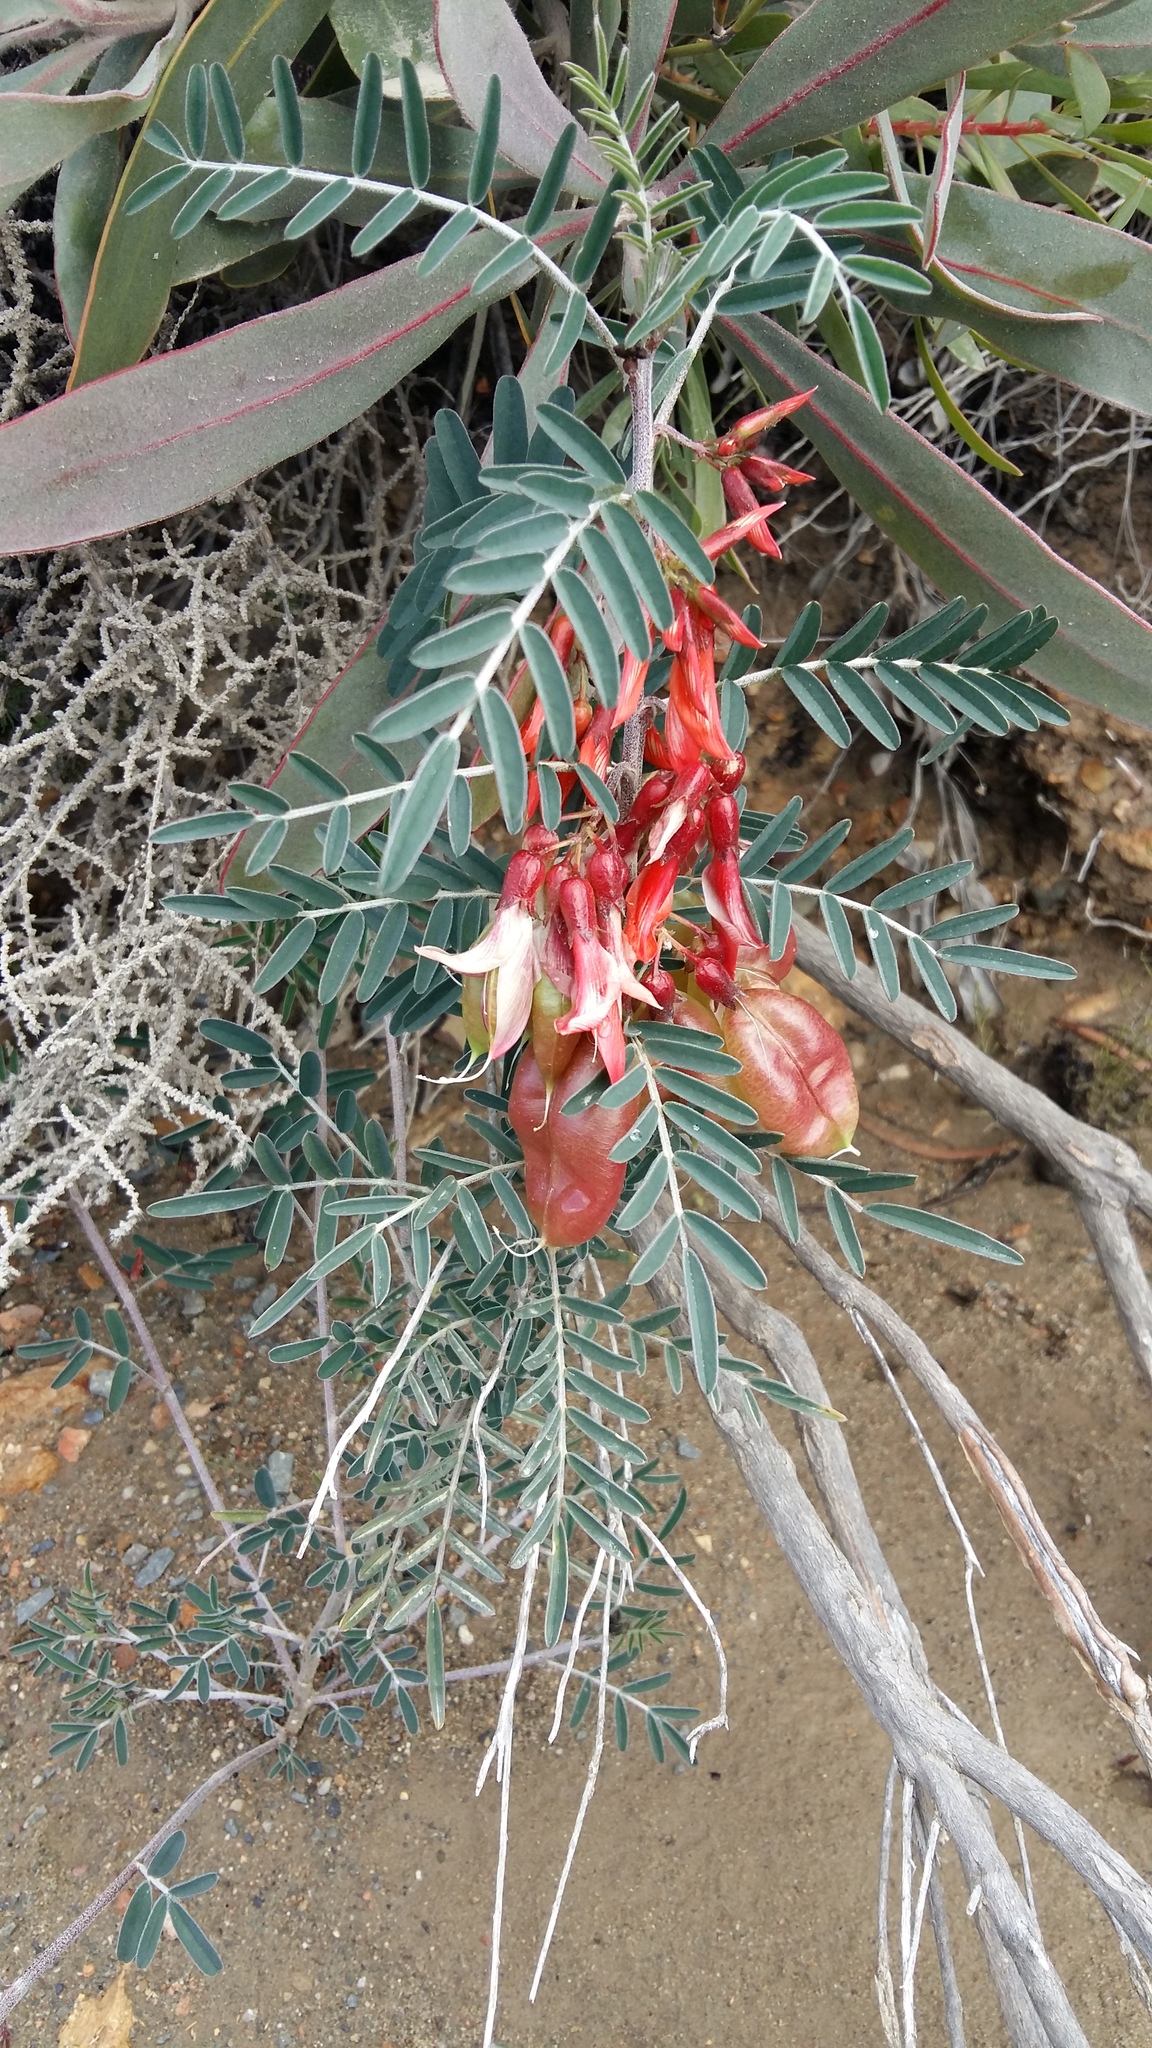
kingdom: Plantae
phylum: Tracheophyta
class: Magnoliopsida
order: Fabales
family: Fabaceae
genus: Lessertia
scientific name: Lessertia frutescens
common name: Balloon-pea
